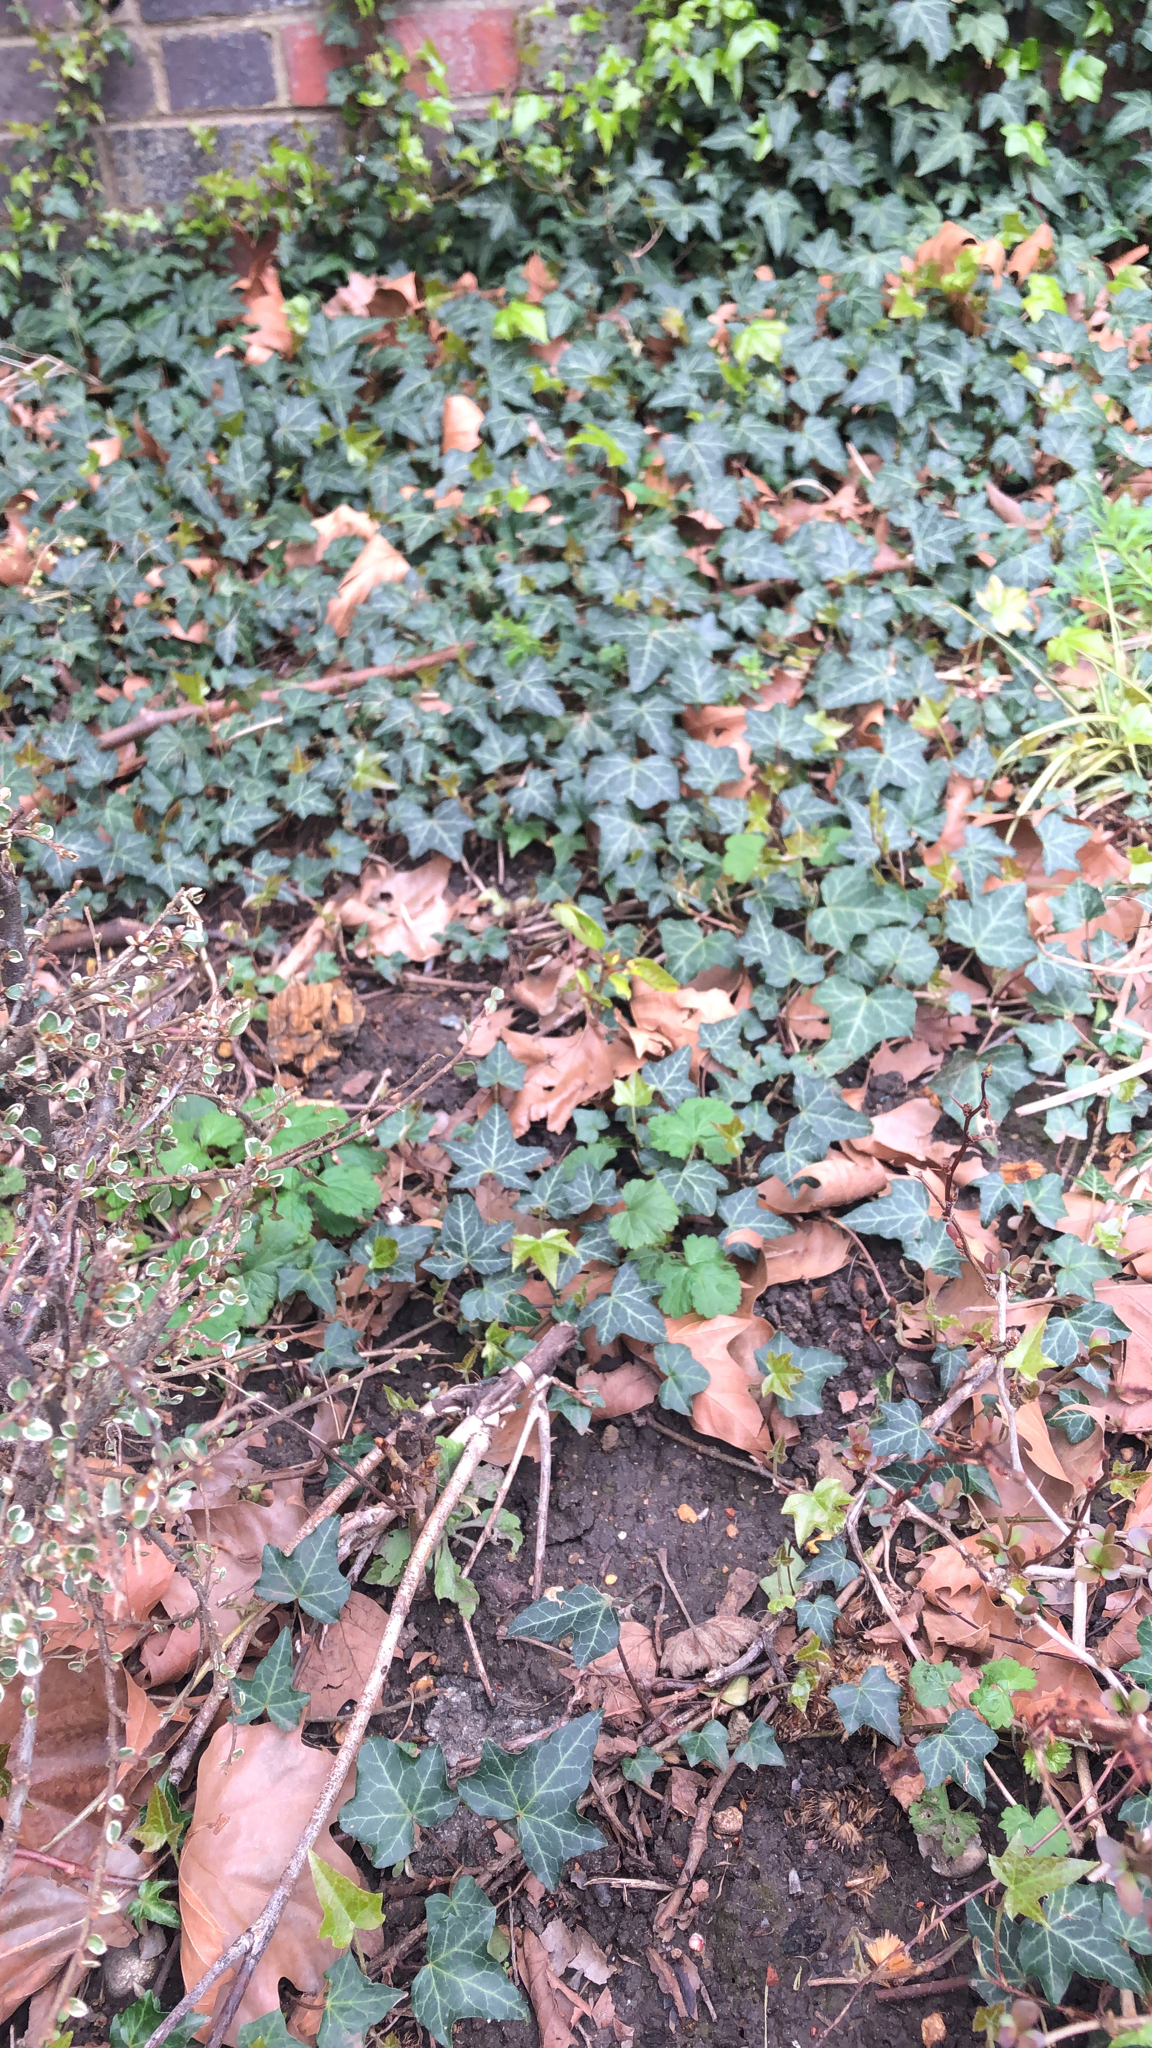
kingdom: Plantae
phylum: Tracheophyta
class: Magnoliopsida
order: Apiales
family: Araliaceae
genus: Hedera
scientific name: Hedera helix
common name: Ivy
